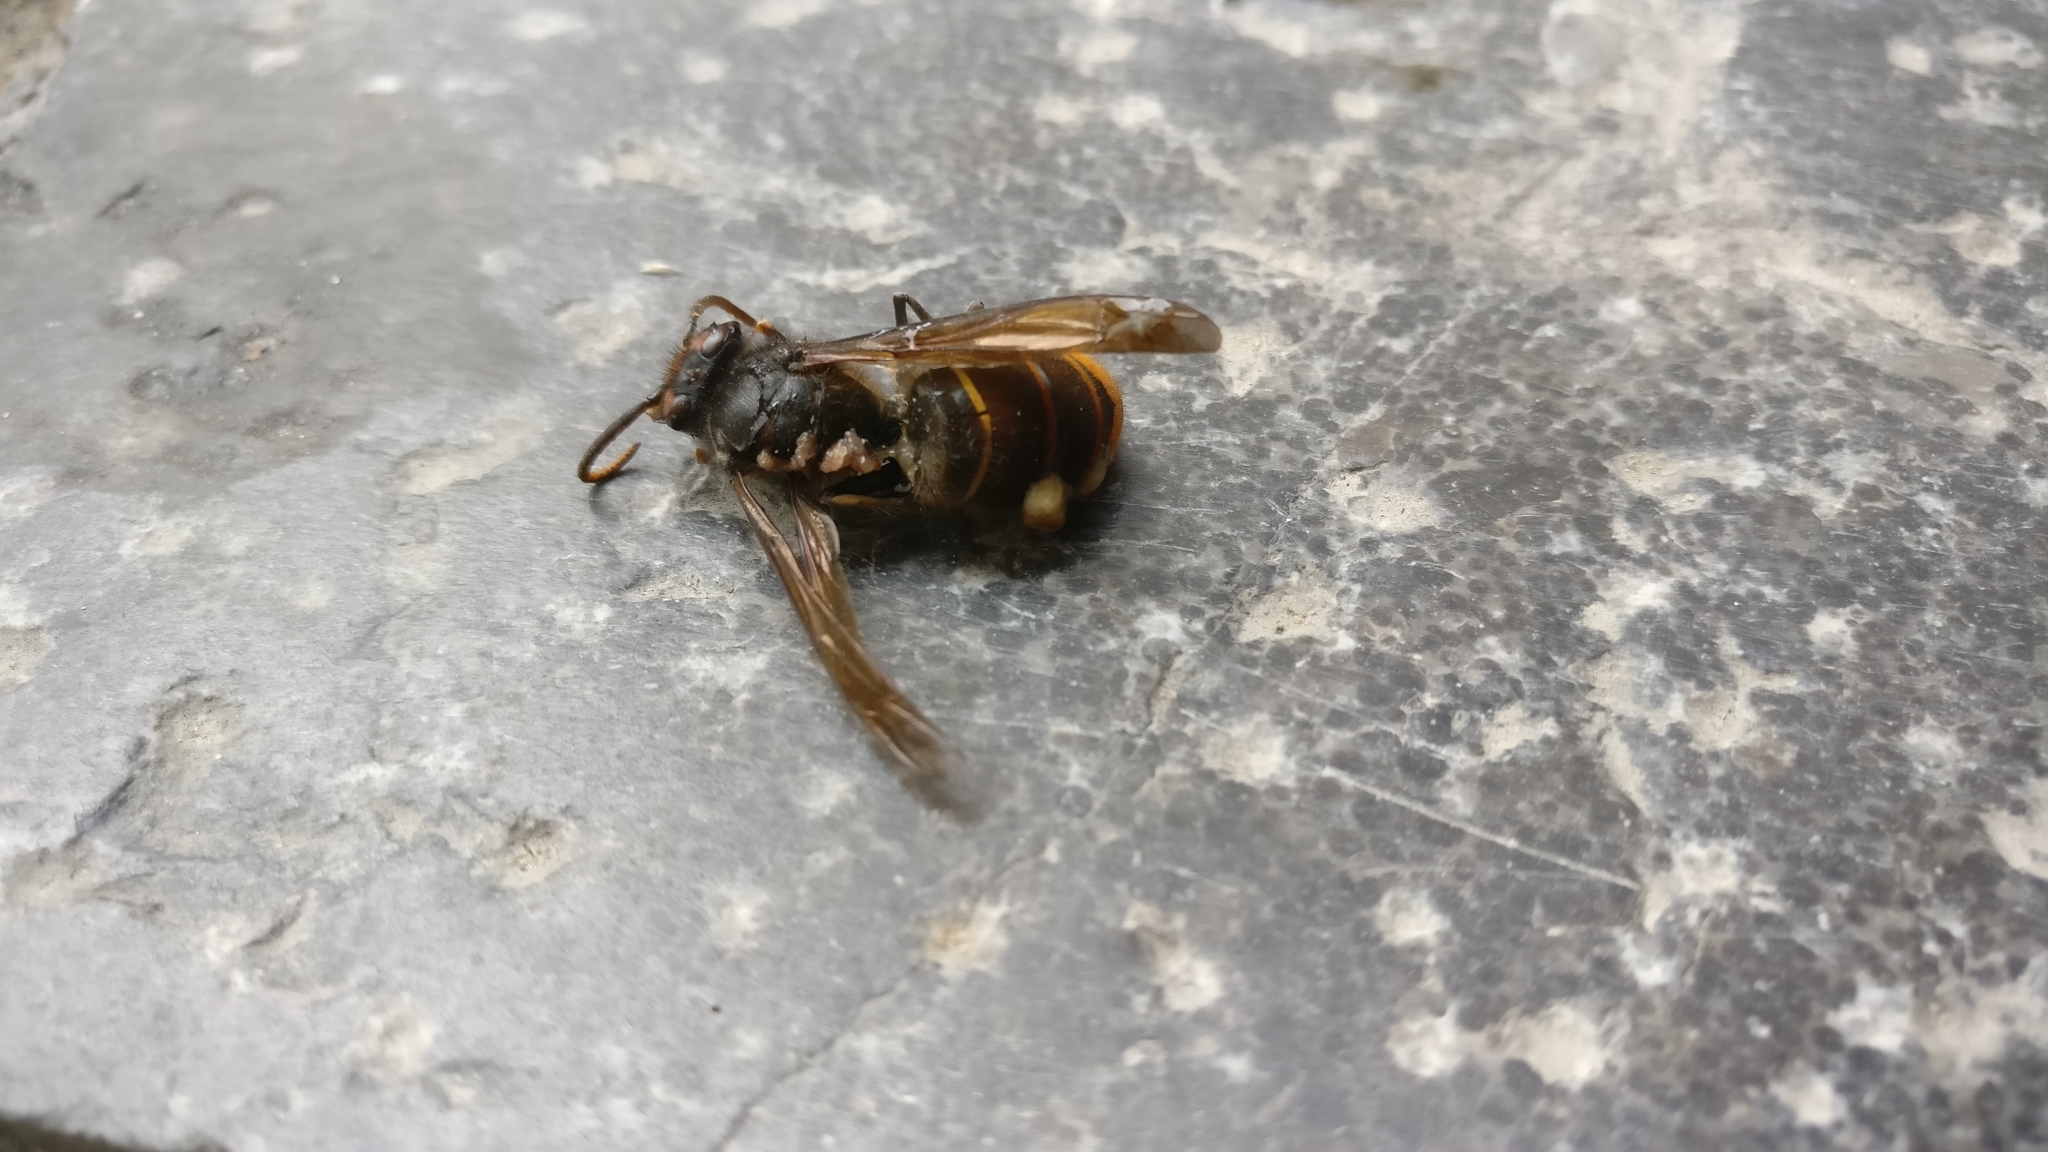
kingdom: Animalia
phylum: Arthropoda
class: Insecta
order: Hymenoptera
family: Vespidae
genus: Vespa
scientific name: Vespa velutina
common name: Asian hornet
